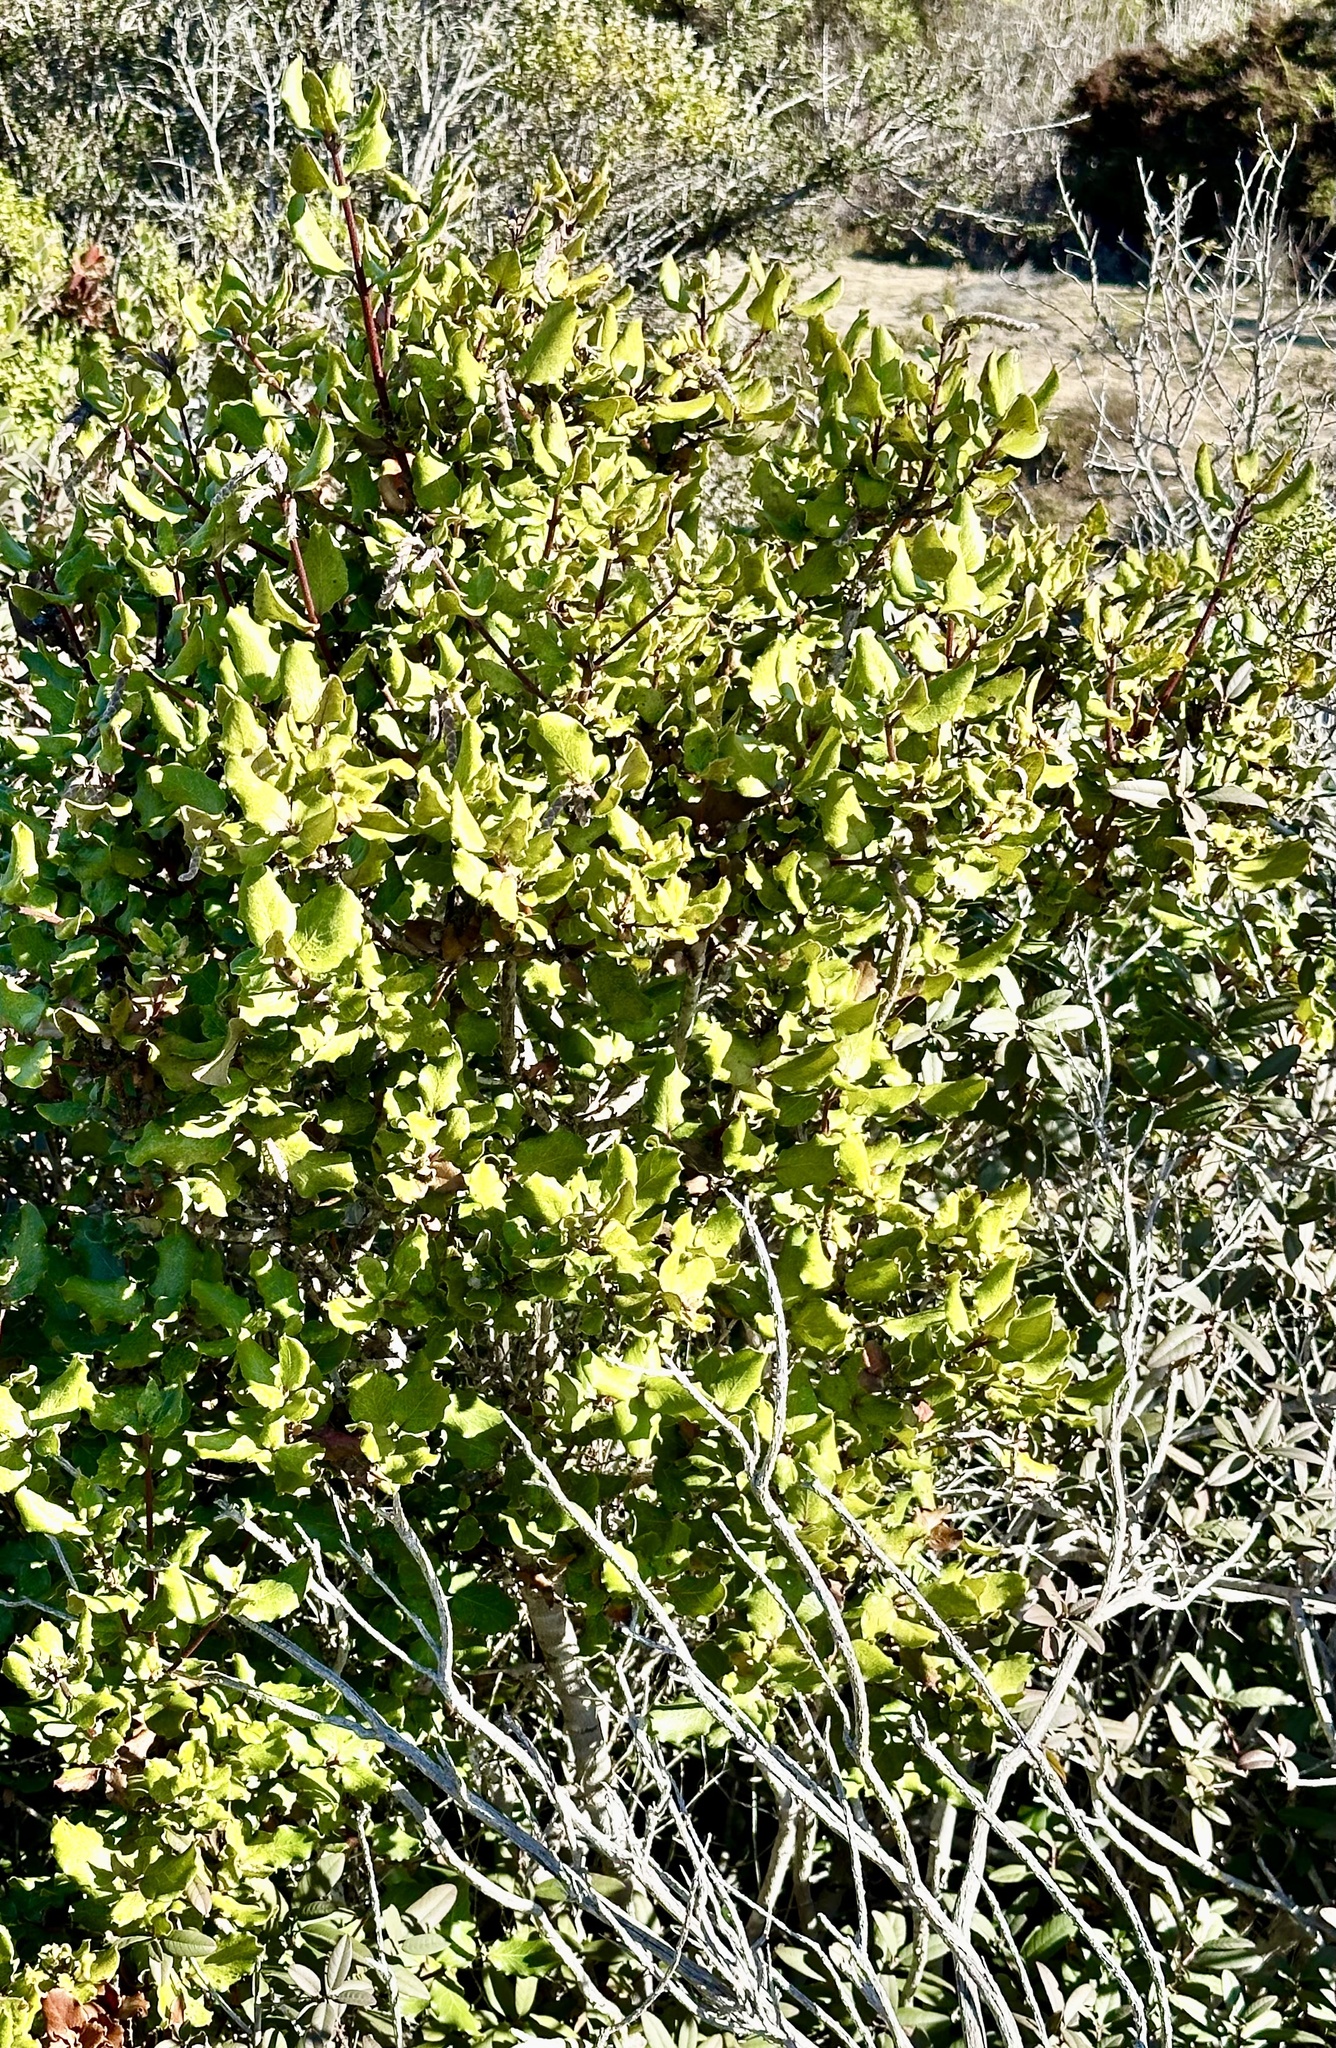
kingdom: Plantae
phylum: Tracheophyta
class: Magnoliopsida
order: Garryales
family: Garryaceae
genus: Garrya
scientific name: Garrya elliptica
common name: Silk-tassel
